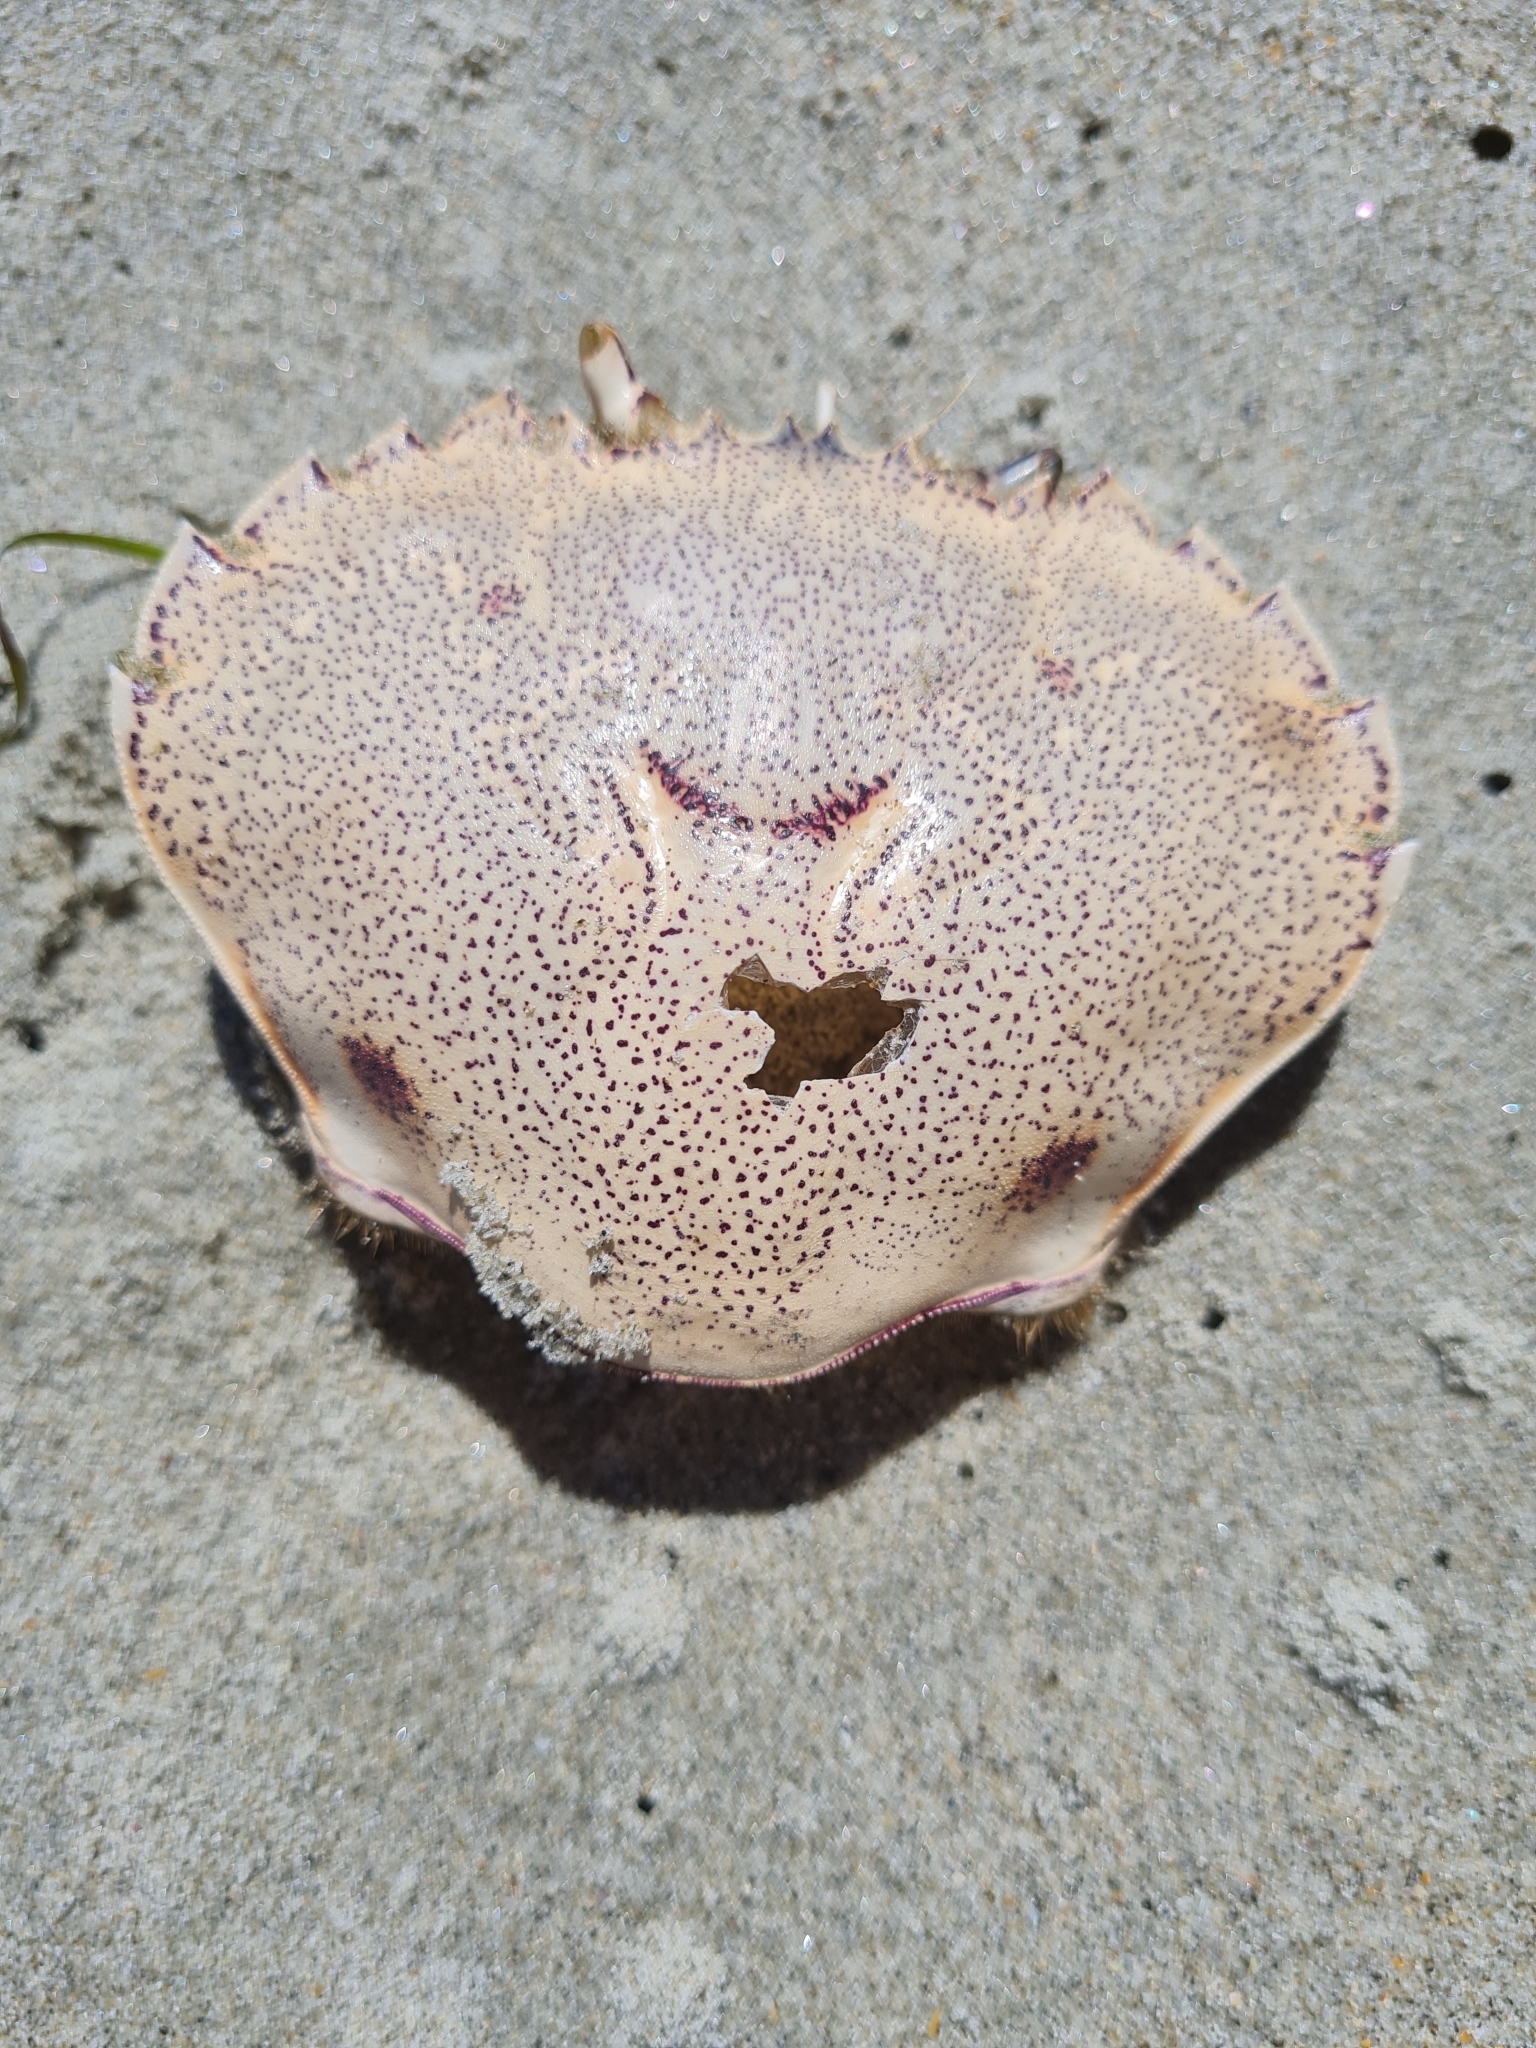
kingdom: Animalia
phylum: Arthropoda
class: Malacostraca
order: Decapoda
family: Ovalipidae
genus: Ovalipes
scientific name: Ovalipes catharus
